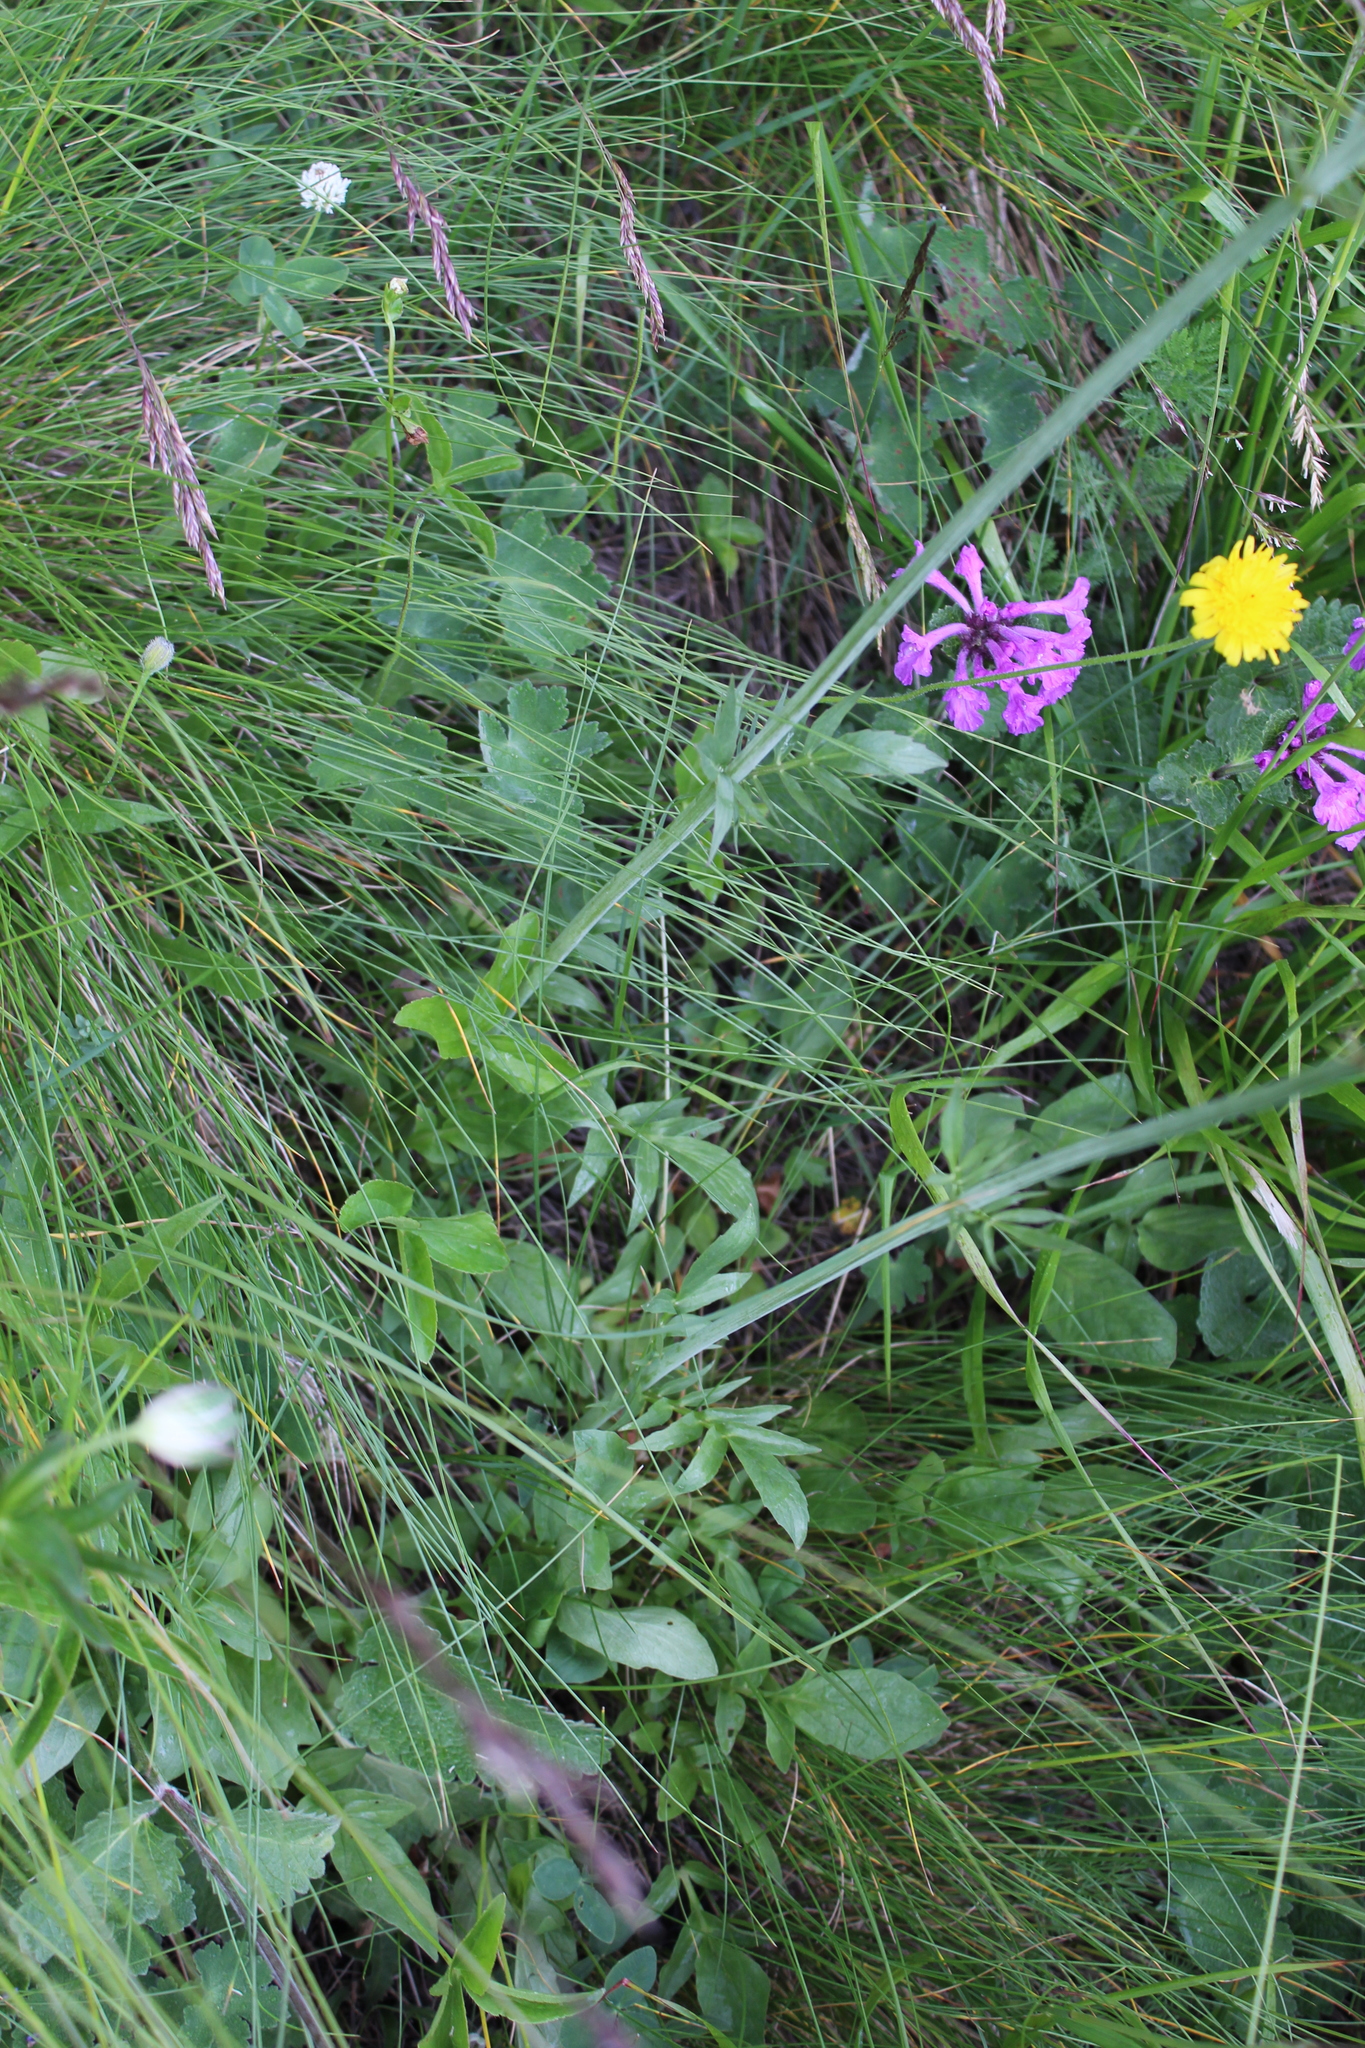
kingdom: Plantae
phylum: Tracheophyta
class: Magnoliopsida
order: Dipsacales
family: Caprifoliaceae
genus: Valeriana
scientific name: Valeriana cardamines
